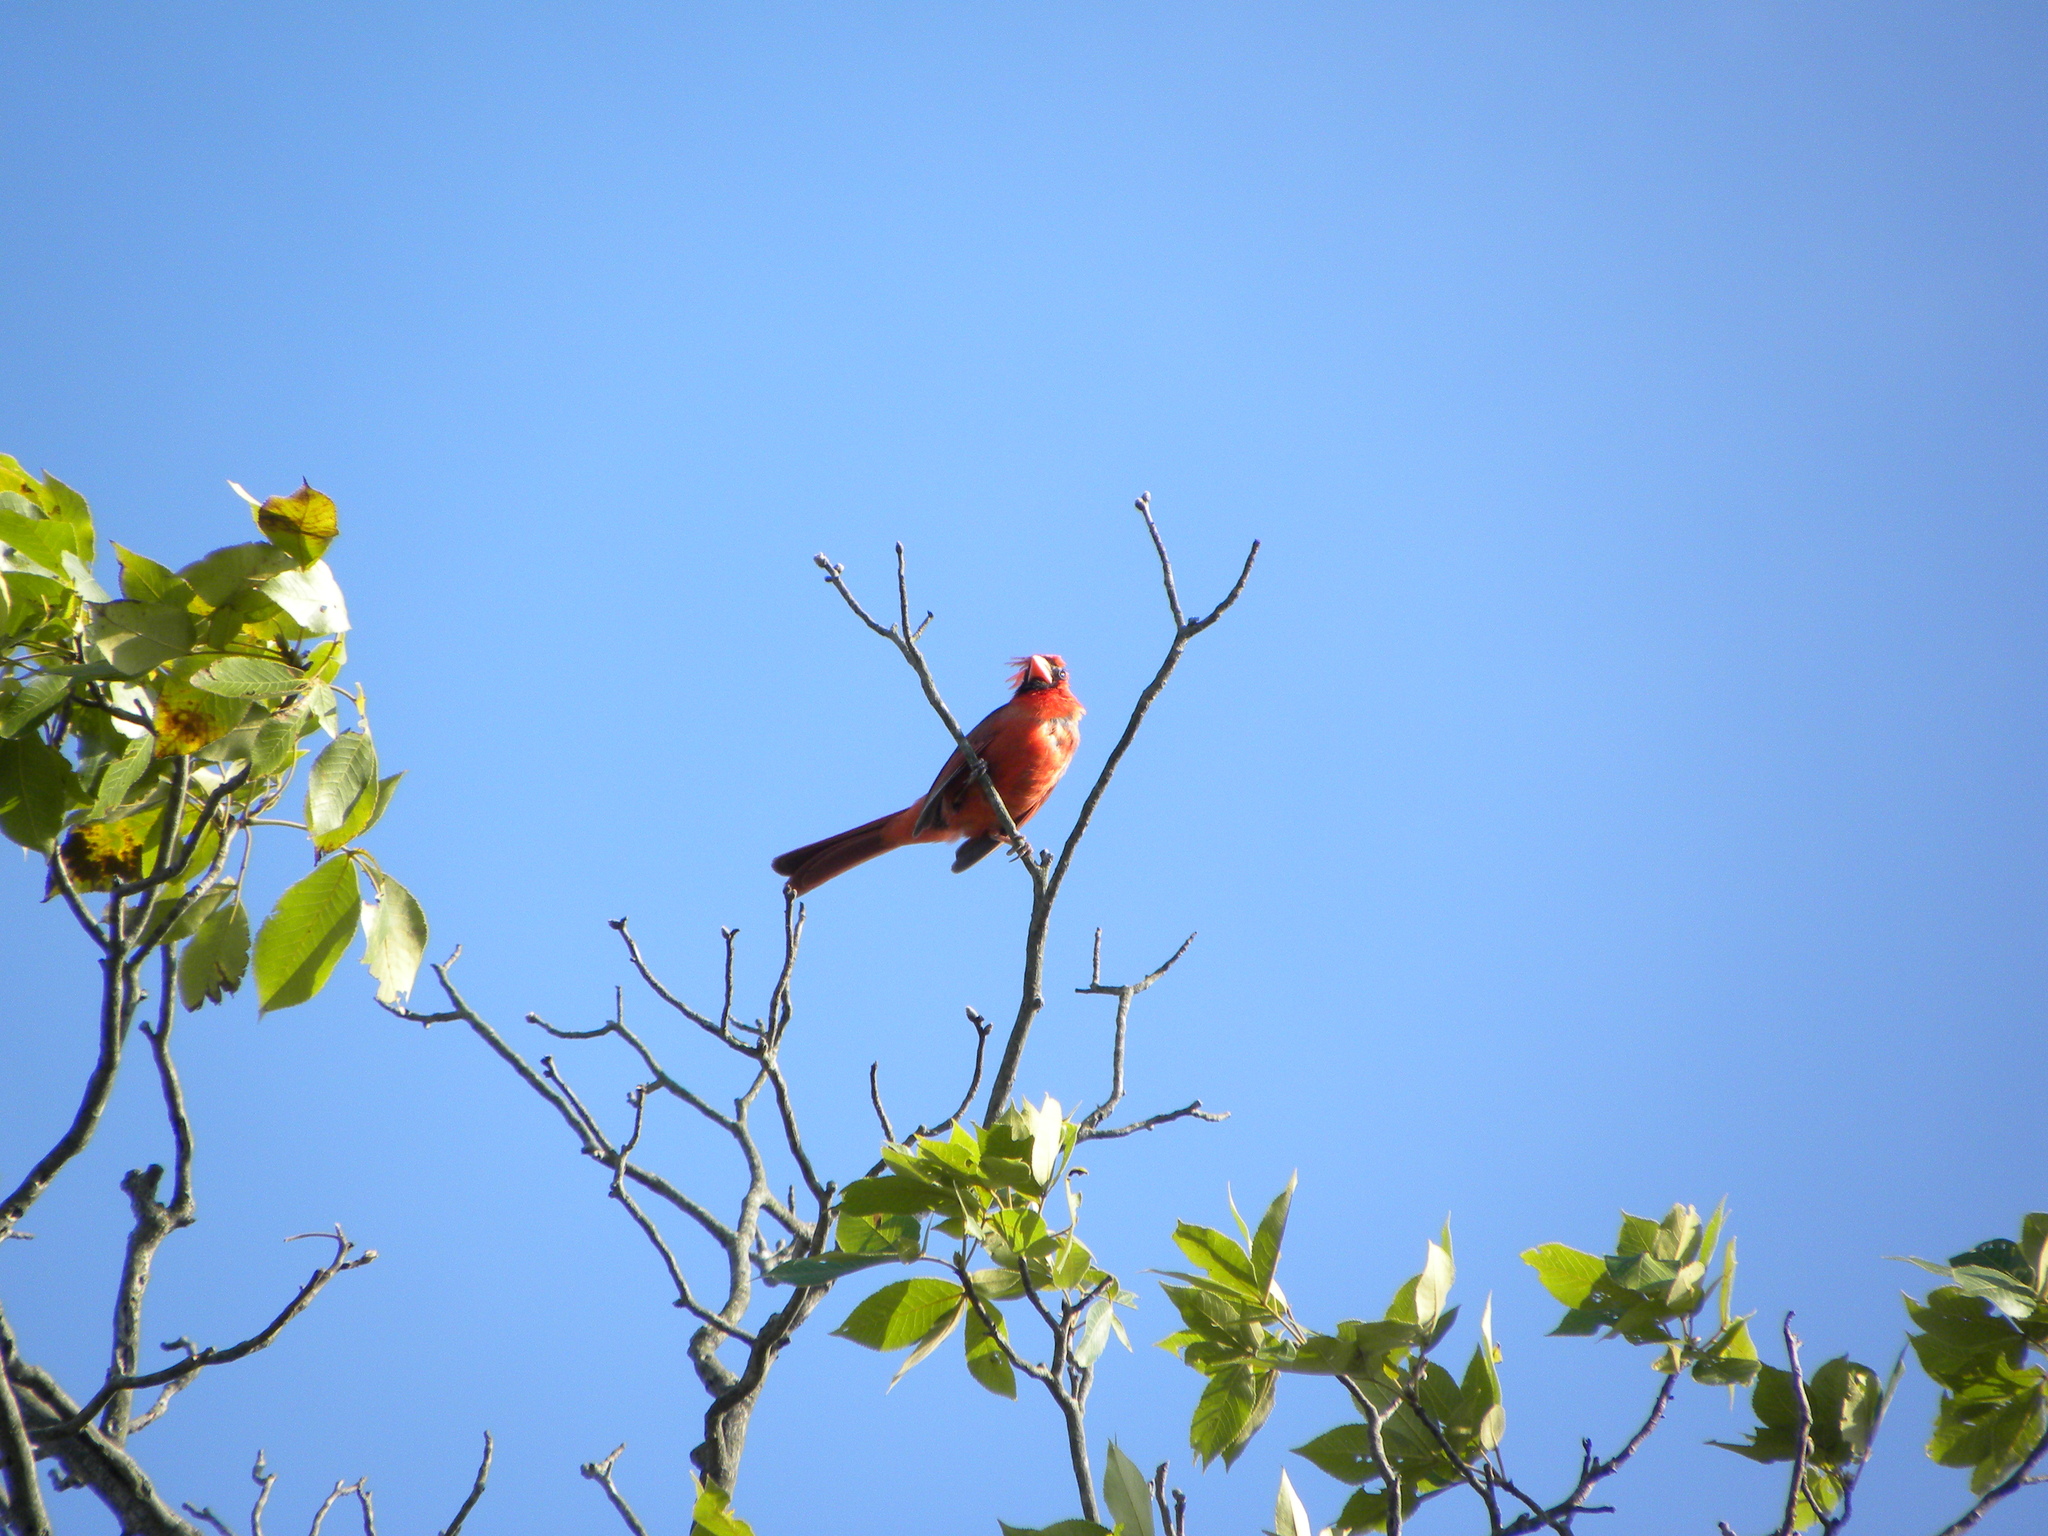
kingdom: Animalia
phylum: Chordata
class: Aves
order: Passeriformes
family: Cardinalidae
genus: Cardinalis
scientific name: Cardinalis cardinalis
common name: Northern cardinal
